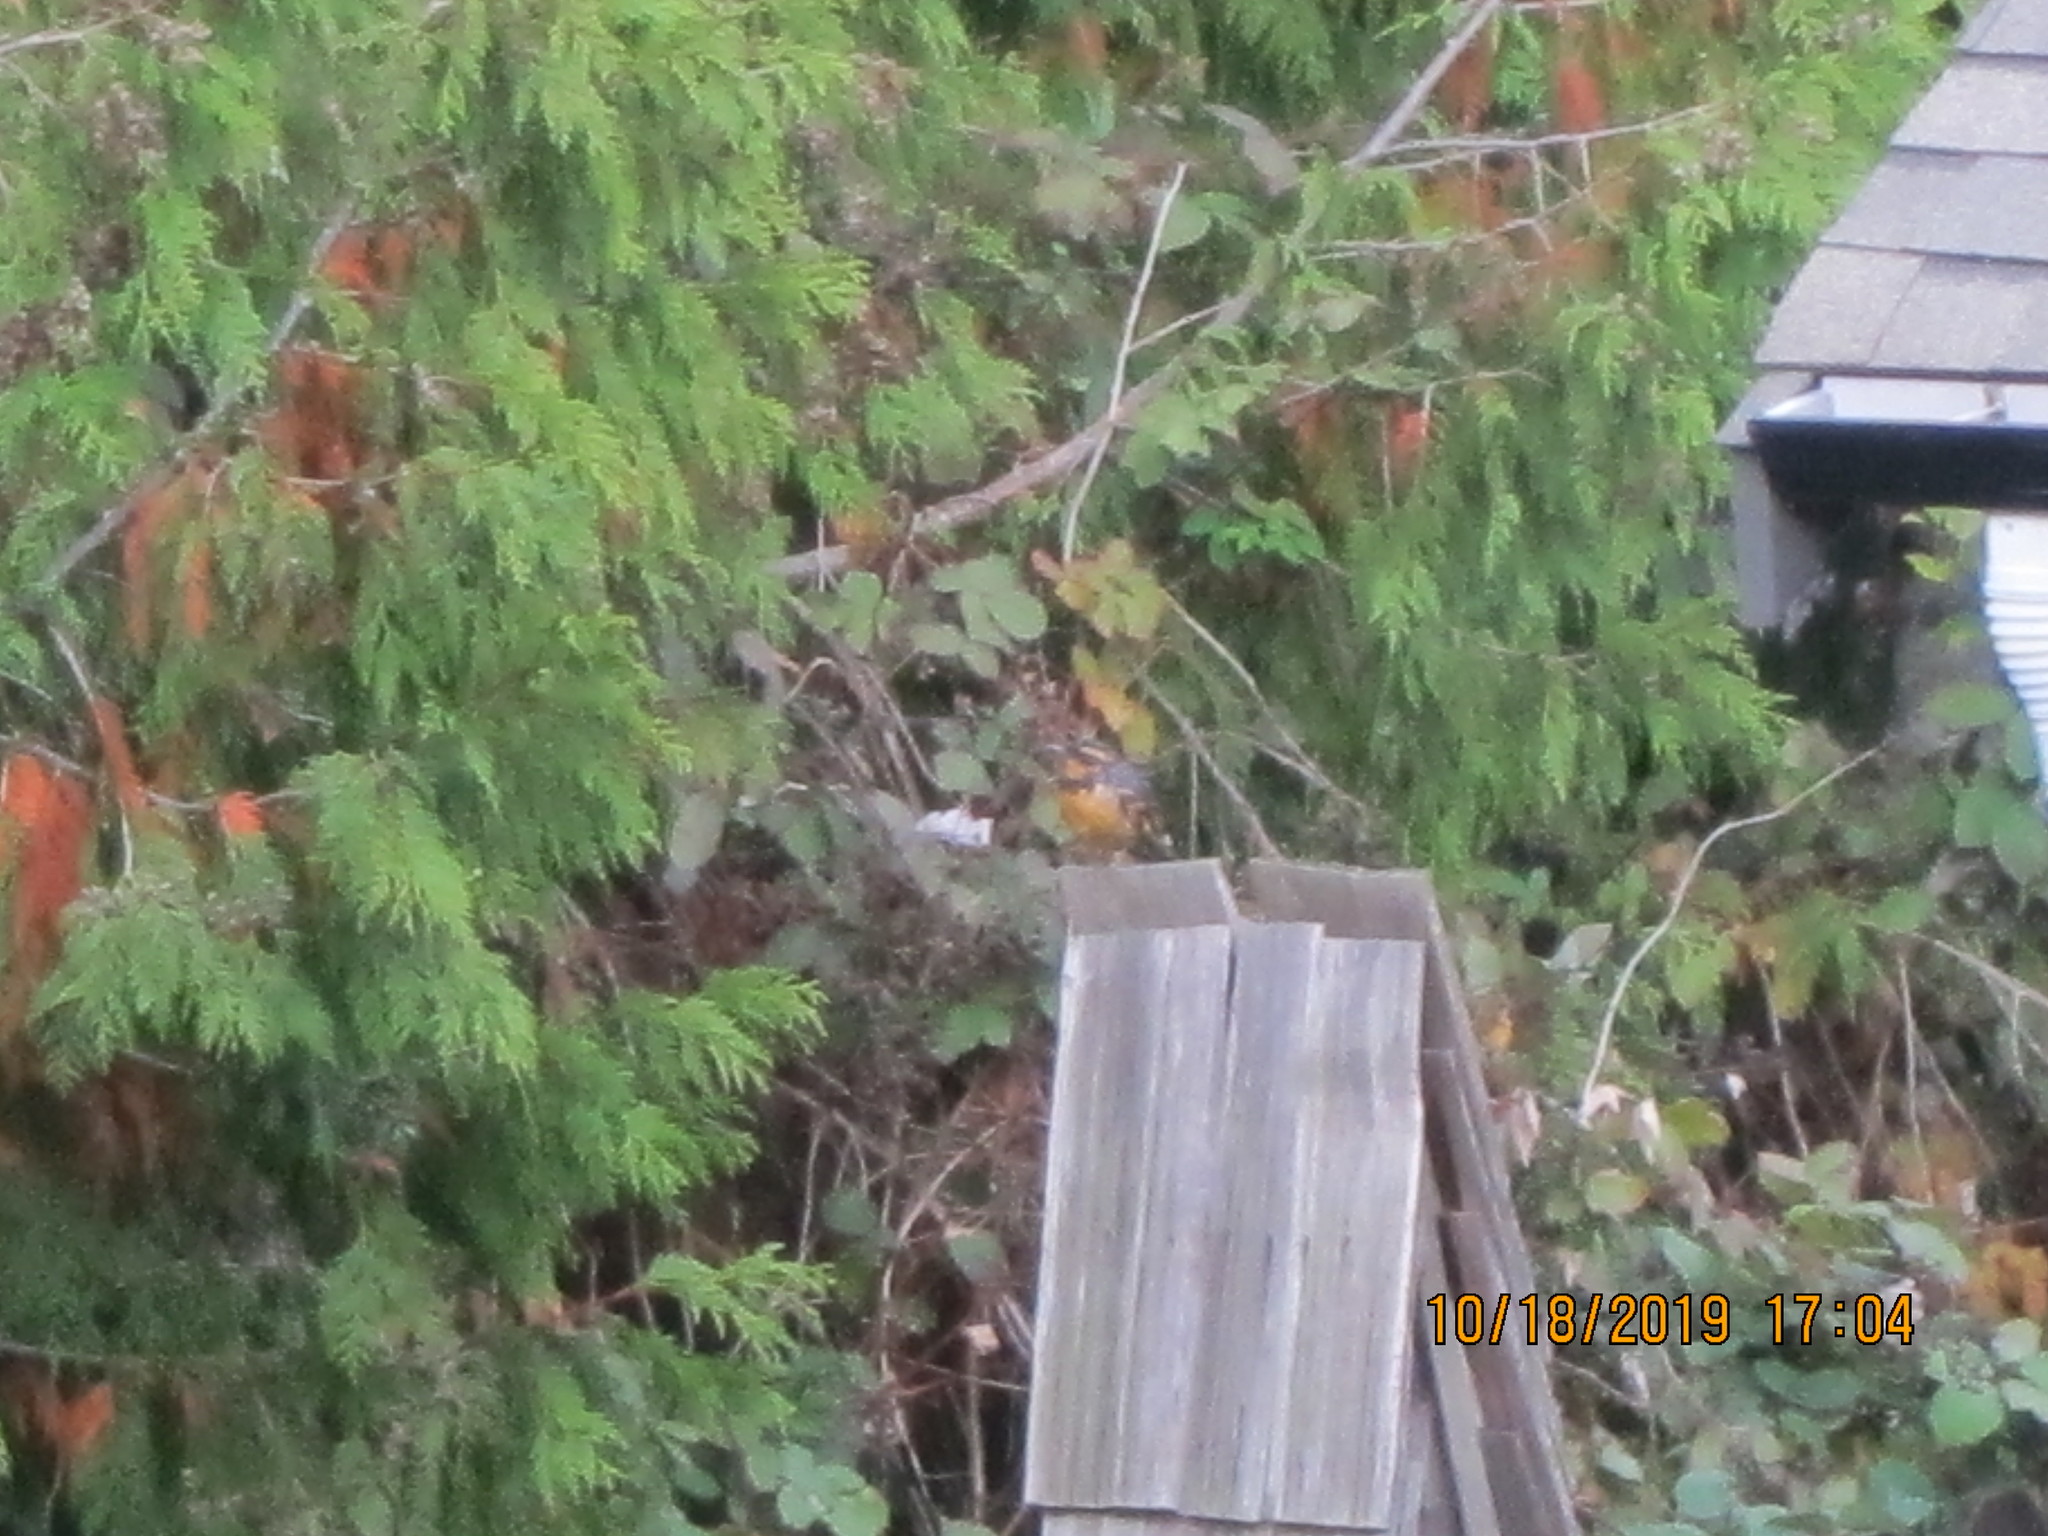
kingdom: Animalia
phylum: Chordata
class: Aves
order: Passeriformes
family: Turdidae
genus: Ixoreus
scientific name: Ixoreus naevius
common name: Varied thrush
